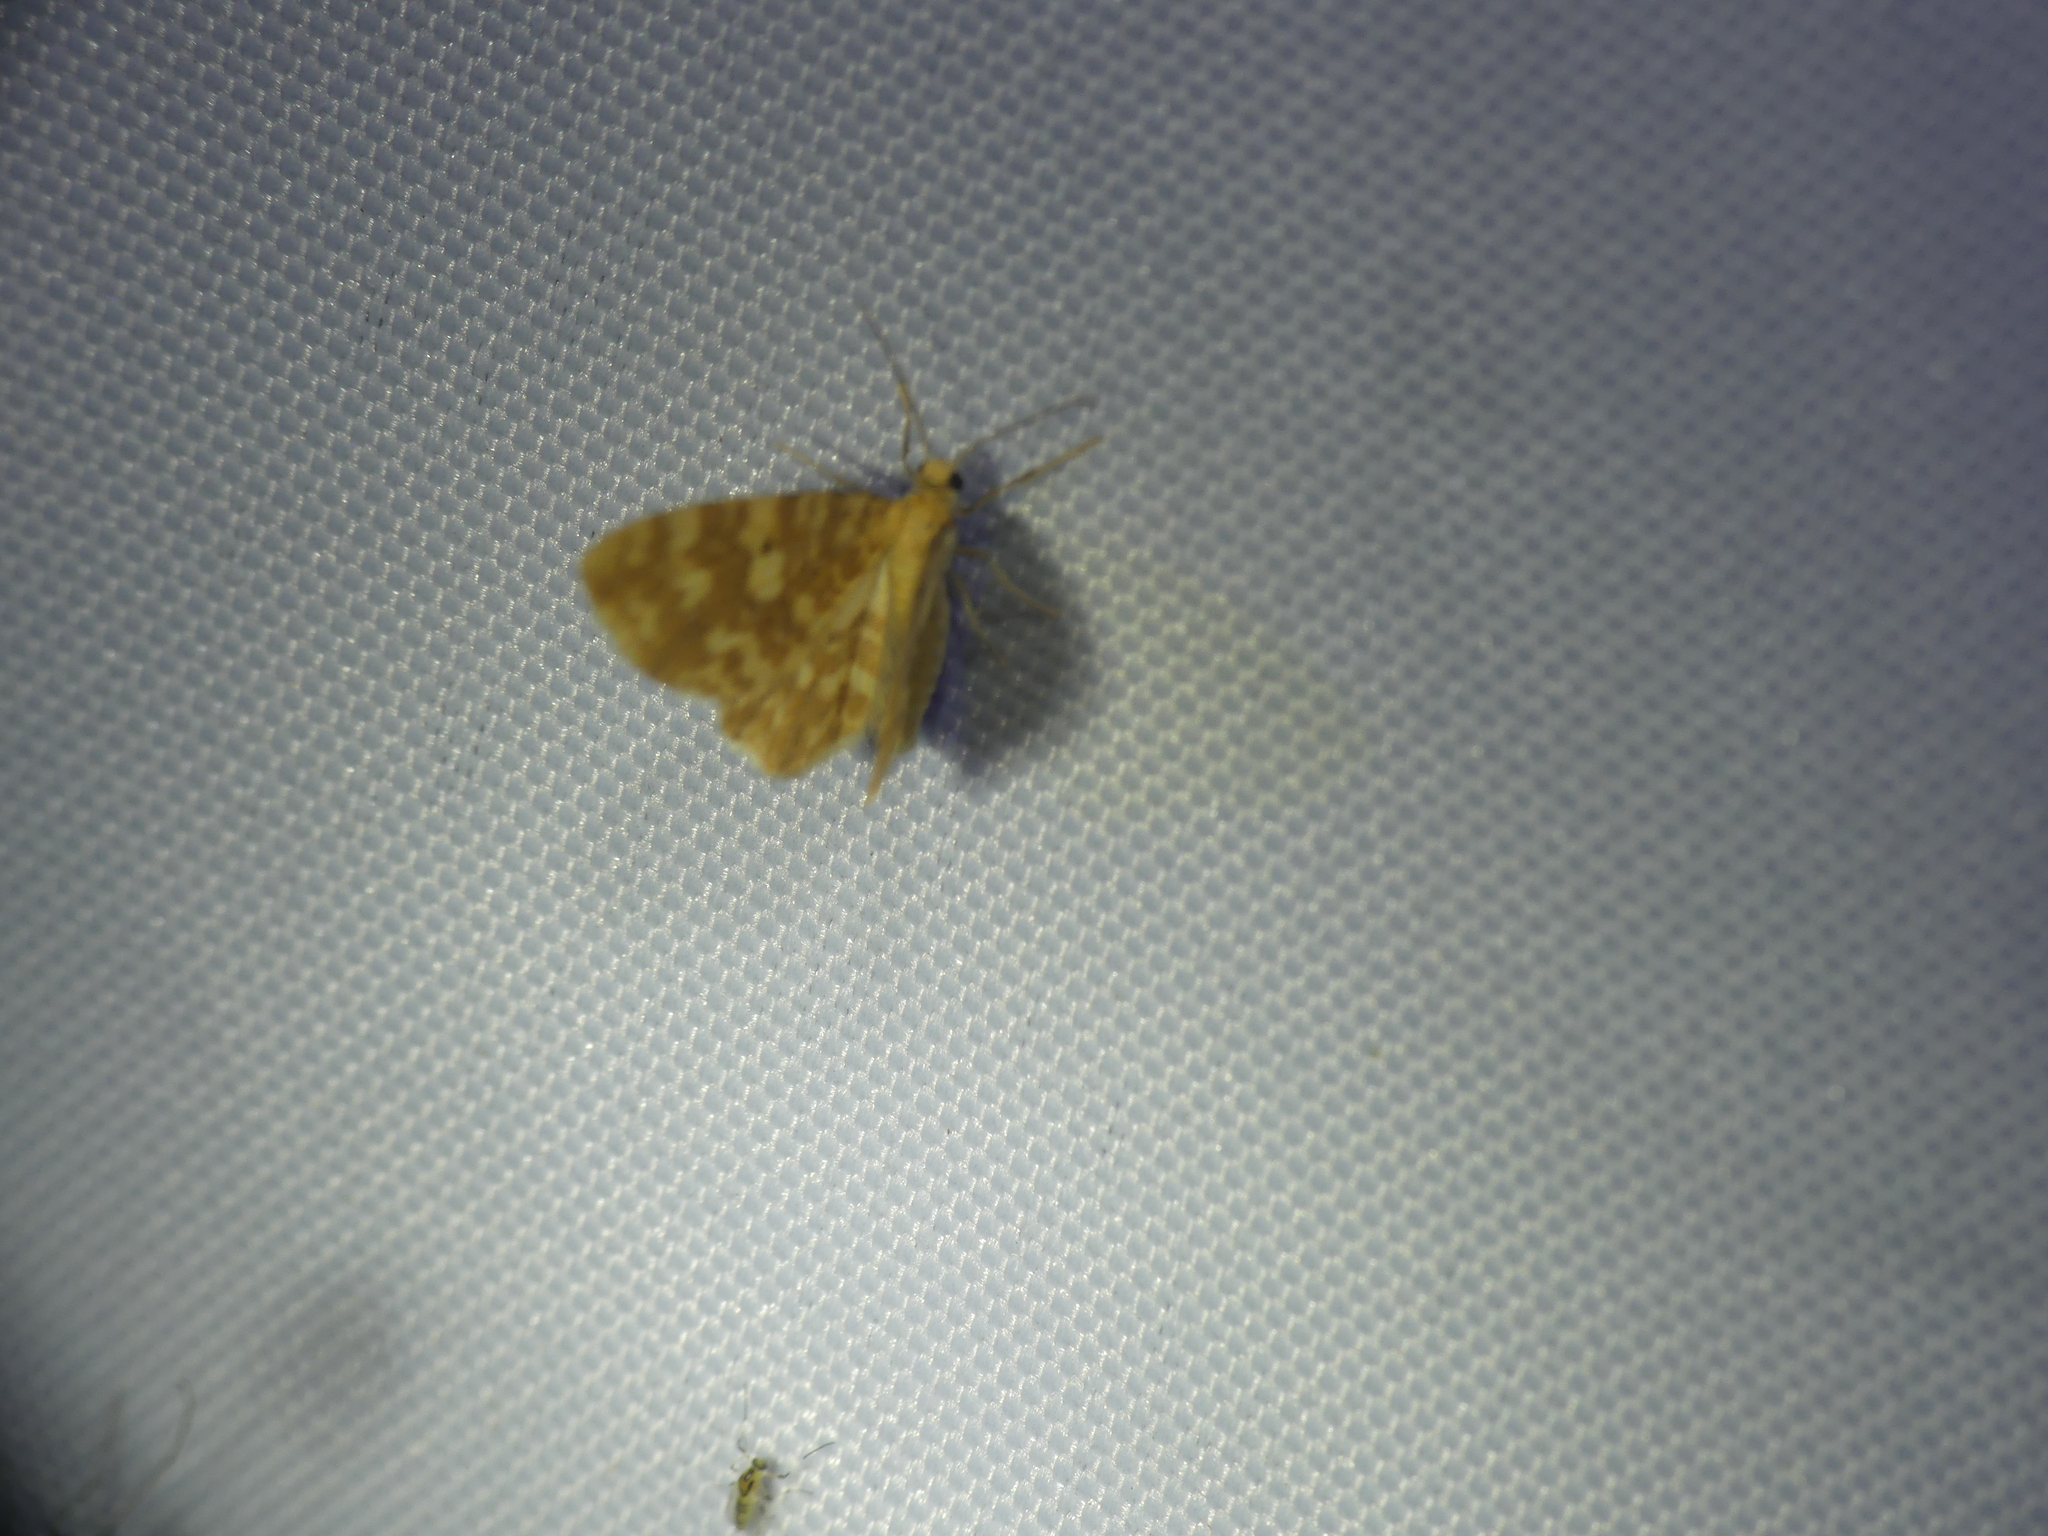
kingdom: Animalia
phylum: Arthropoda
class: Insecta
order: Lepidoptera
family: Geometridae
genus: Hydrelia
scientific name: Hydrelia flammeolaria
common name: Small yellow wave
